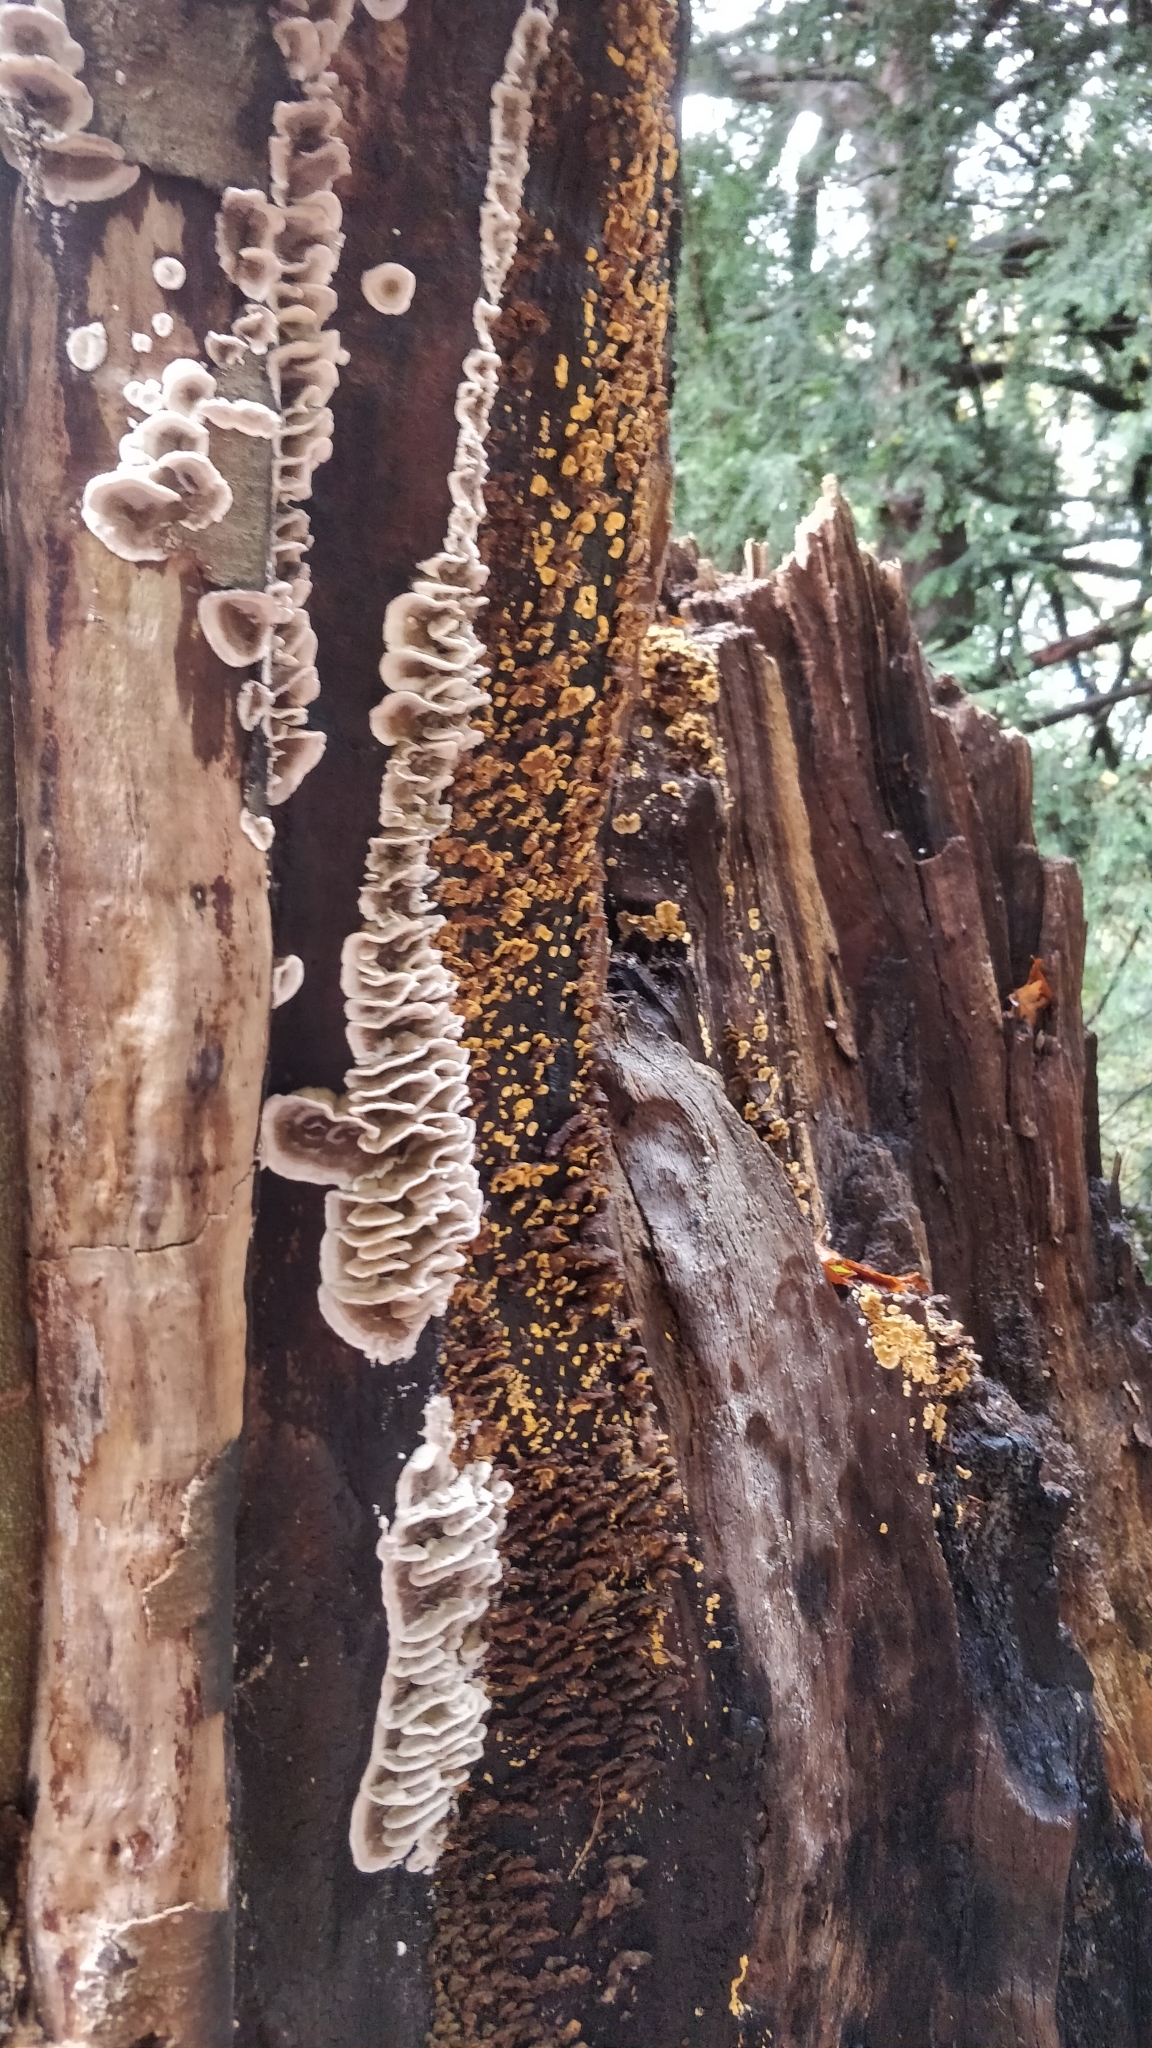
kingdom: Fungi
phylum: Basidiomycota
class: Agaricomycetes
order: Polyporales
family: Phanerochaetaceae
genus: Bjerkandera
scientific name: Bjerkandera adusta
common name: Smoky bracket
